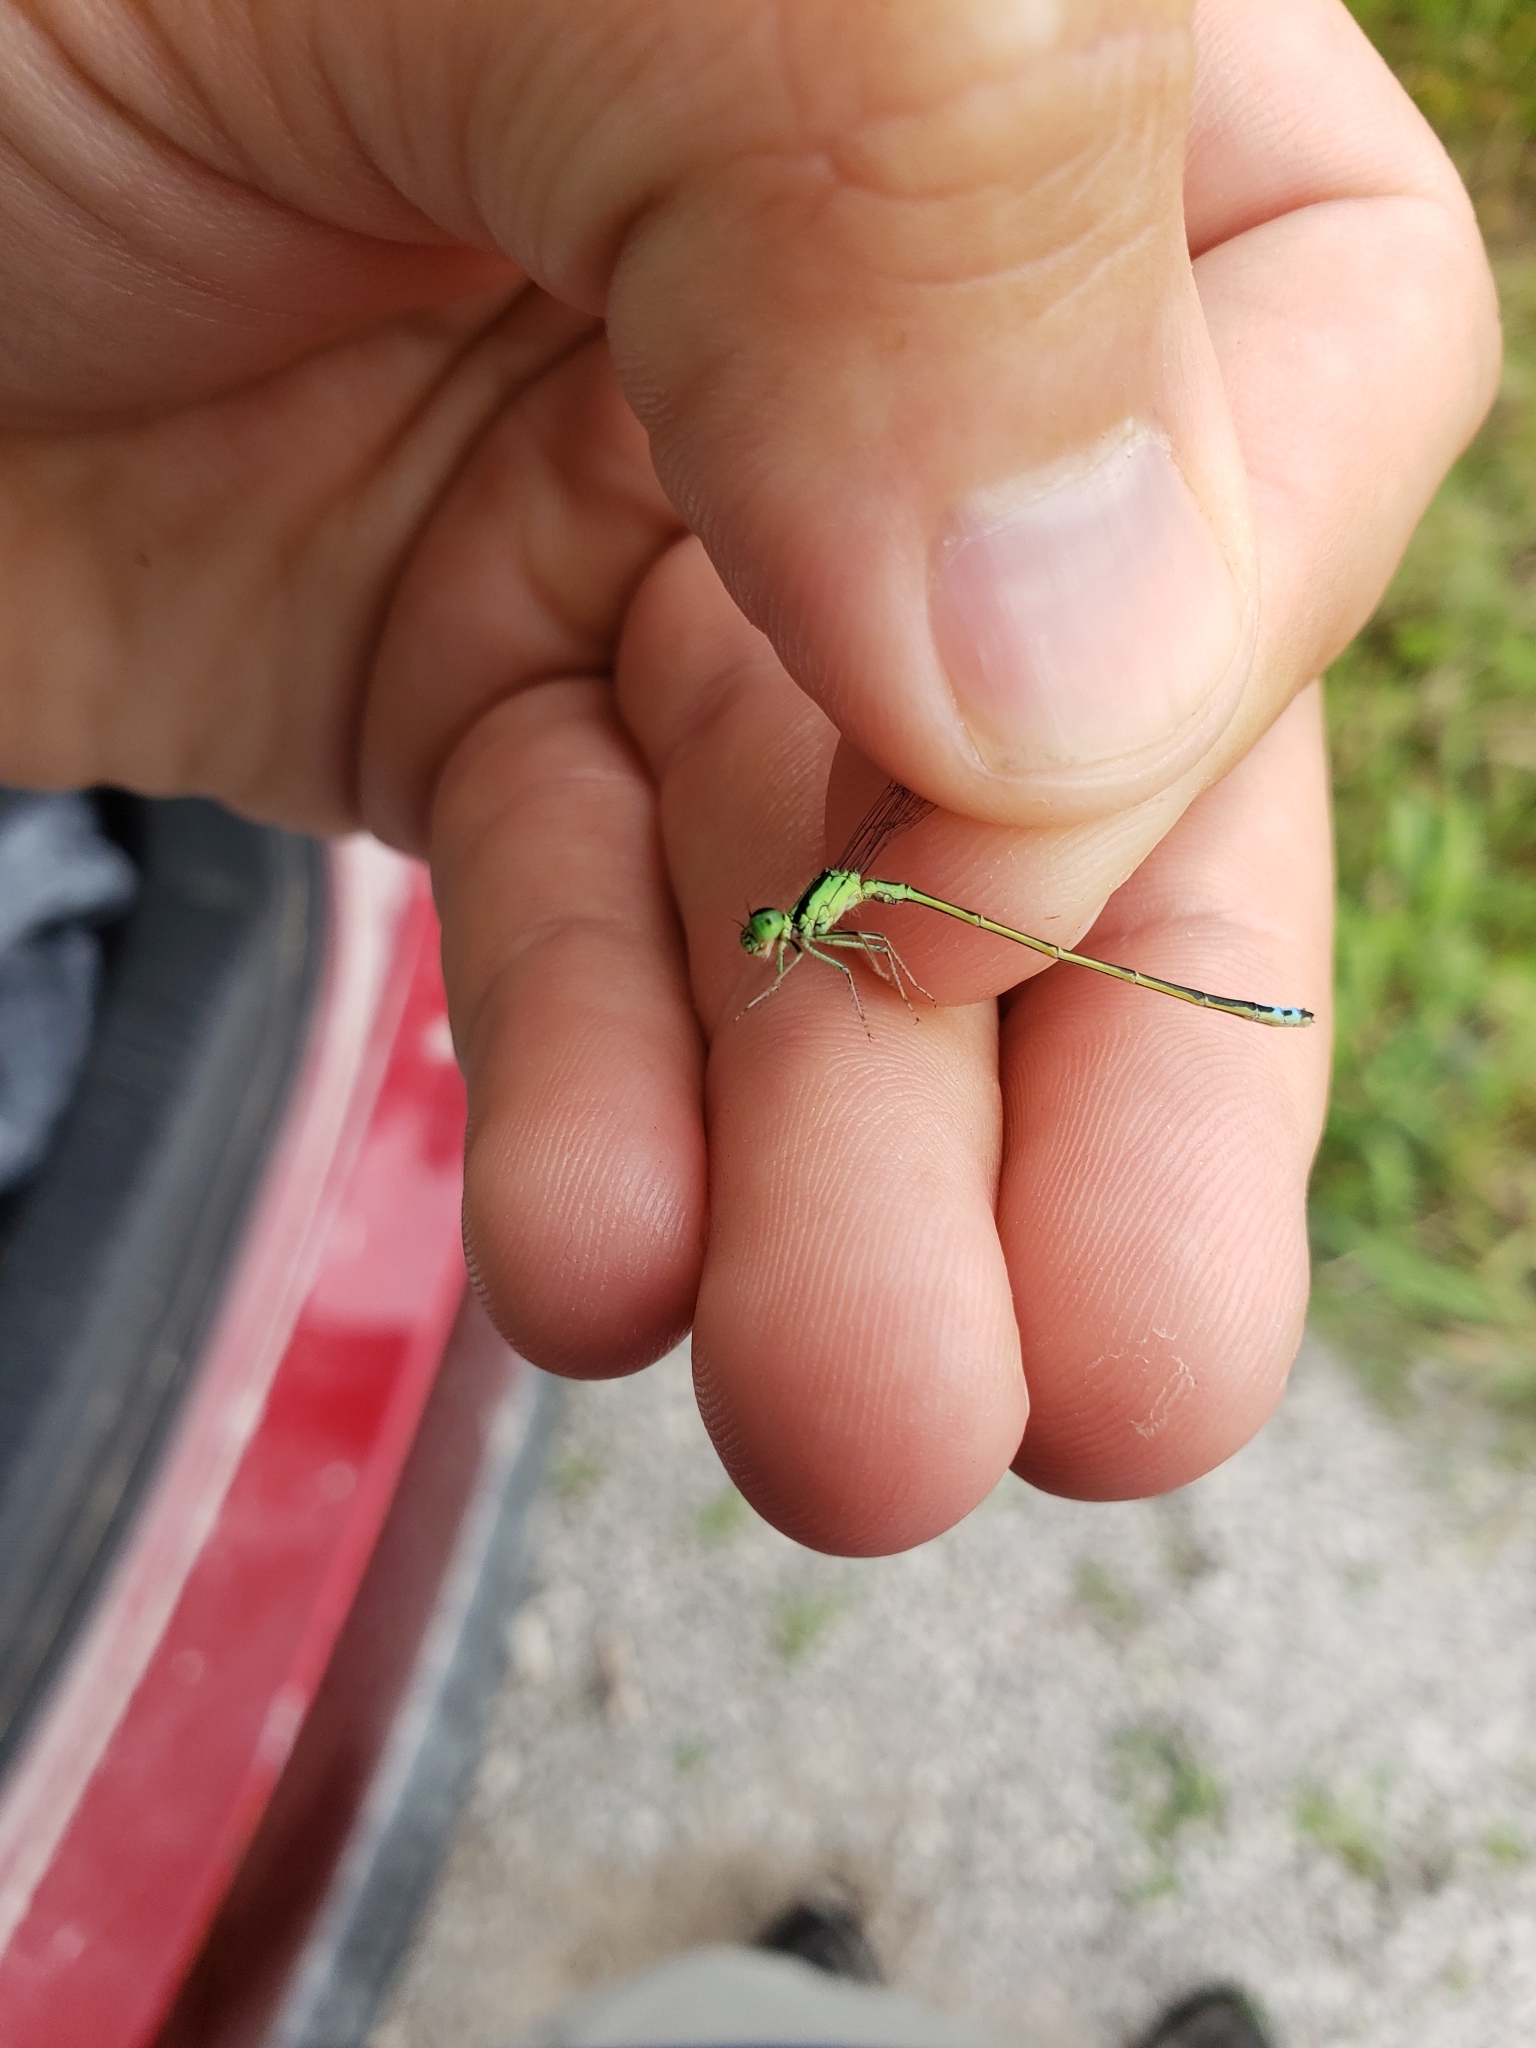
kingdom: Animalia
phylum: Arthropoda
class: Insecta
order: Odonata
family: Coenagrionidae
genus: Ischnura
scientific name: Ischnura verticalis
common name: Eastern forktail
